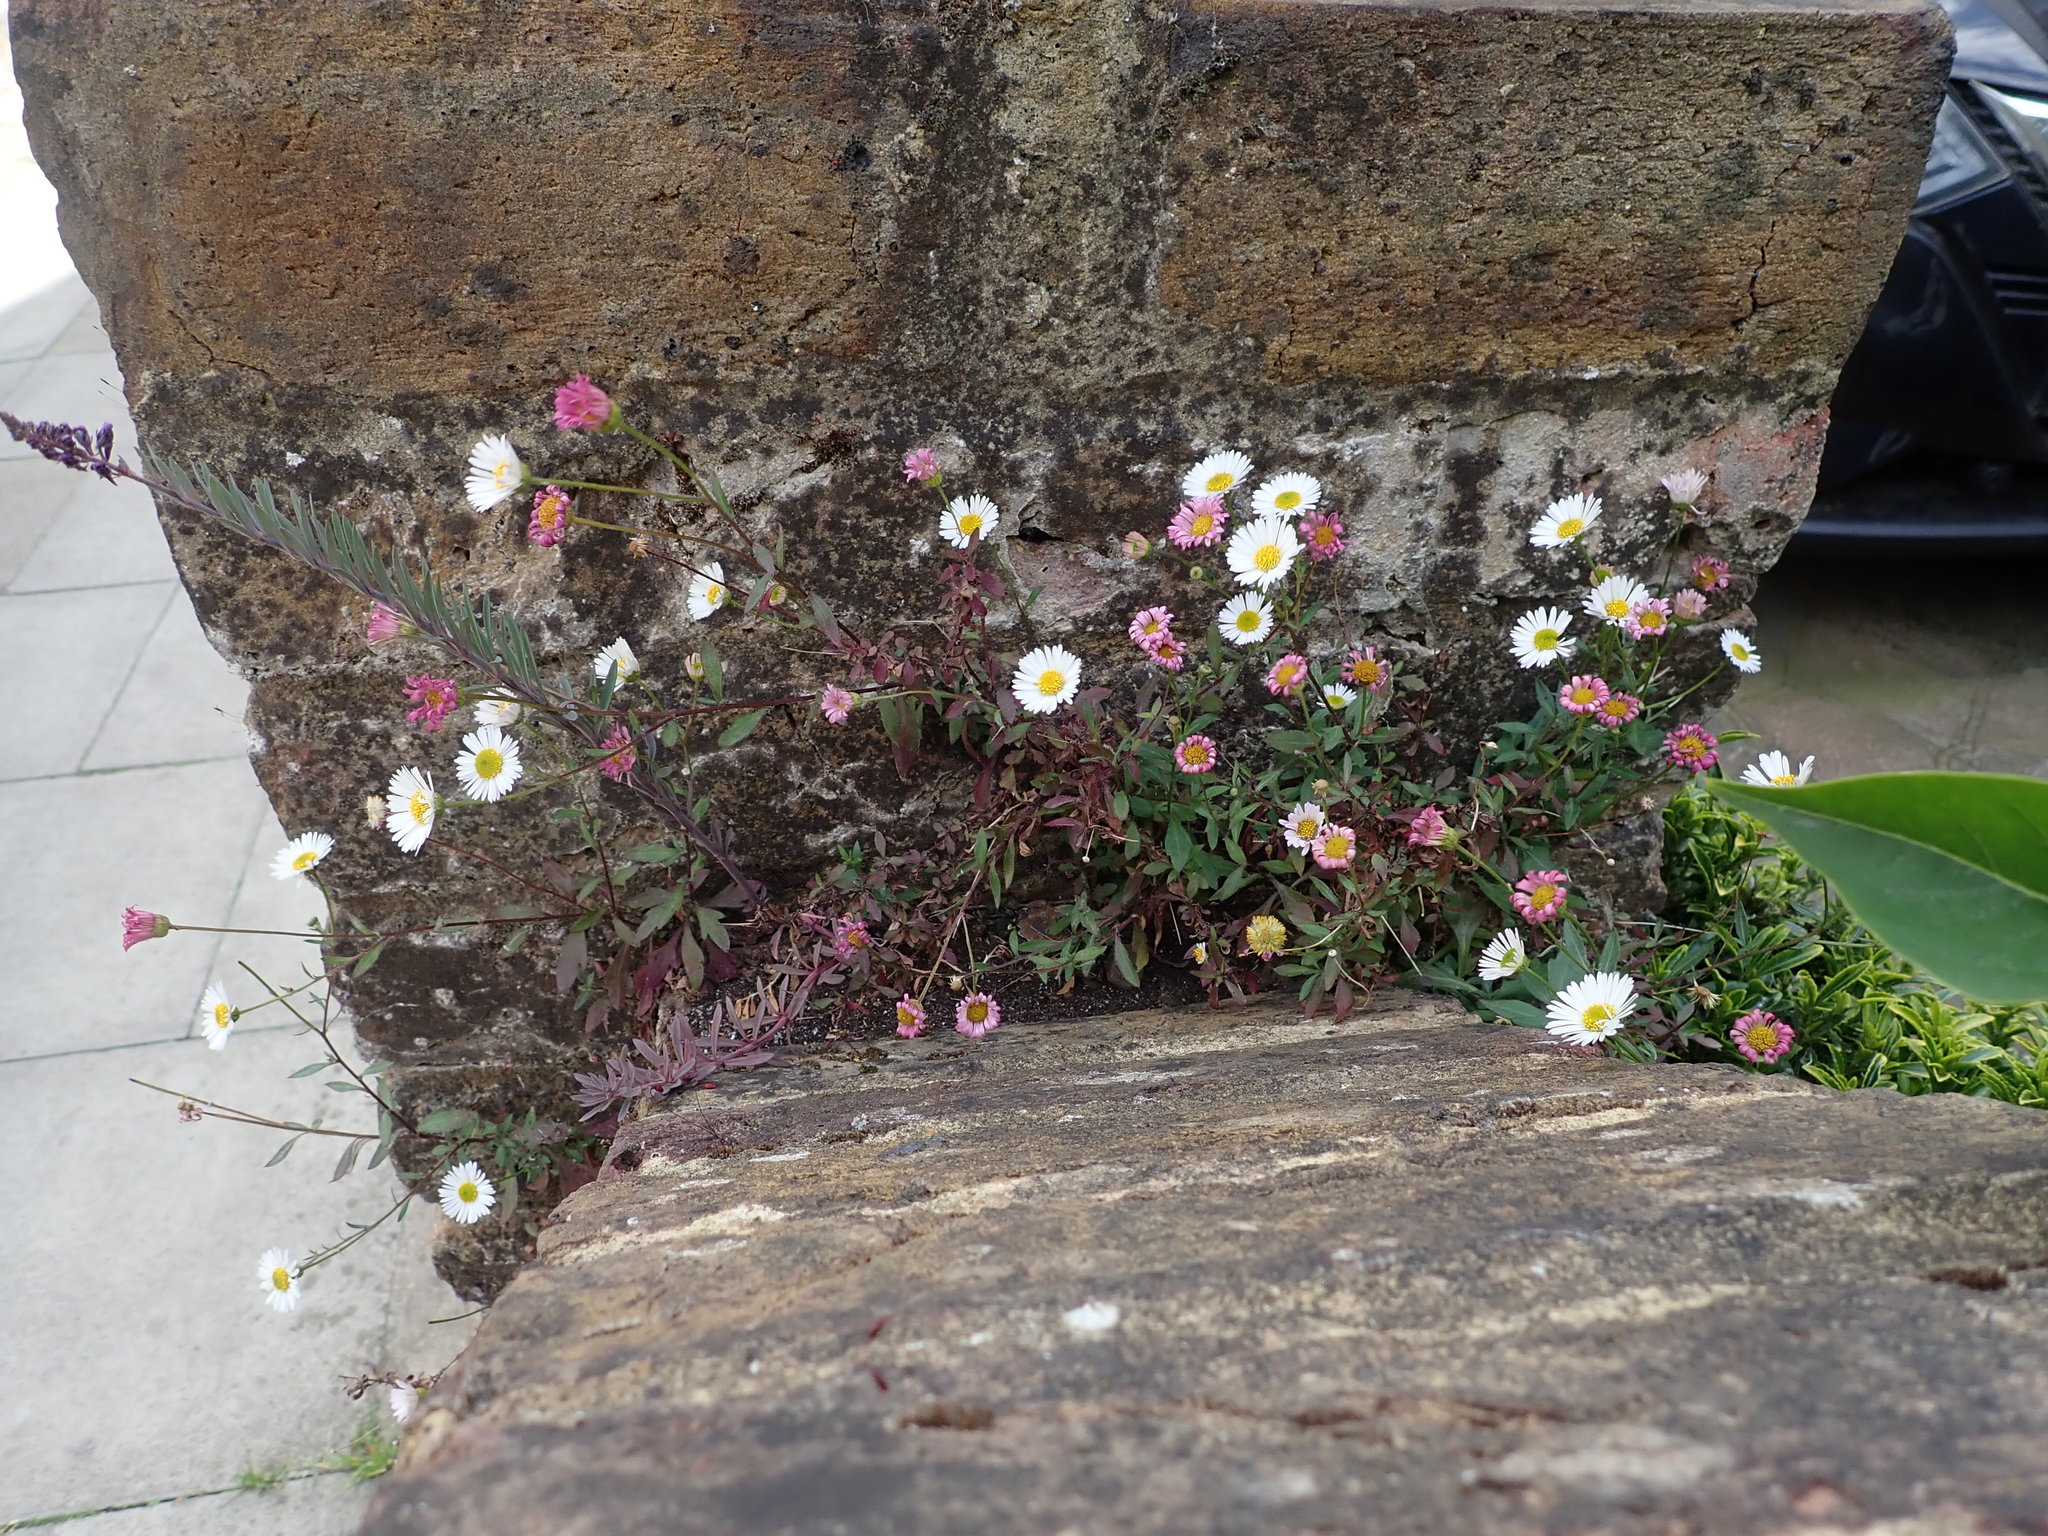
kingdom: Plantae
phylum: Tracheophyta
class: Magnoliopsida
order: Asterales
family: Asteraceae
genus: Erigeron
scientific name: Erigeron karvinskianus
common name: Mexican fleabane
